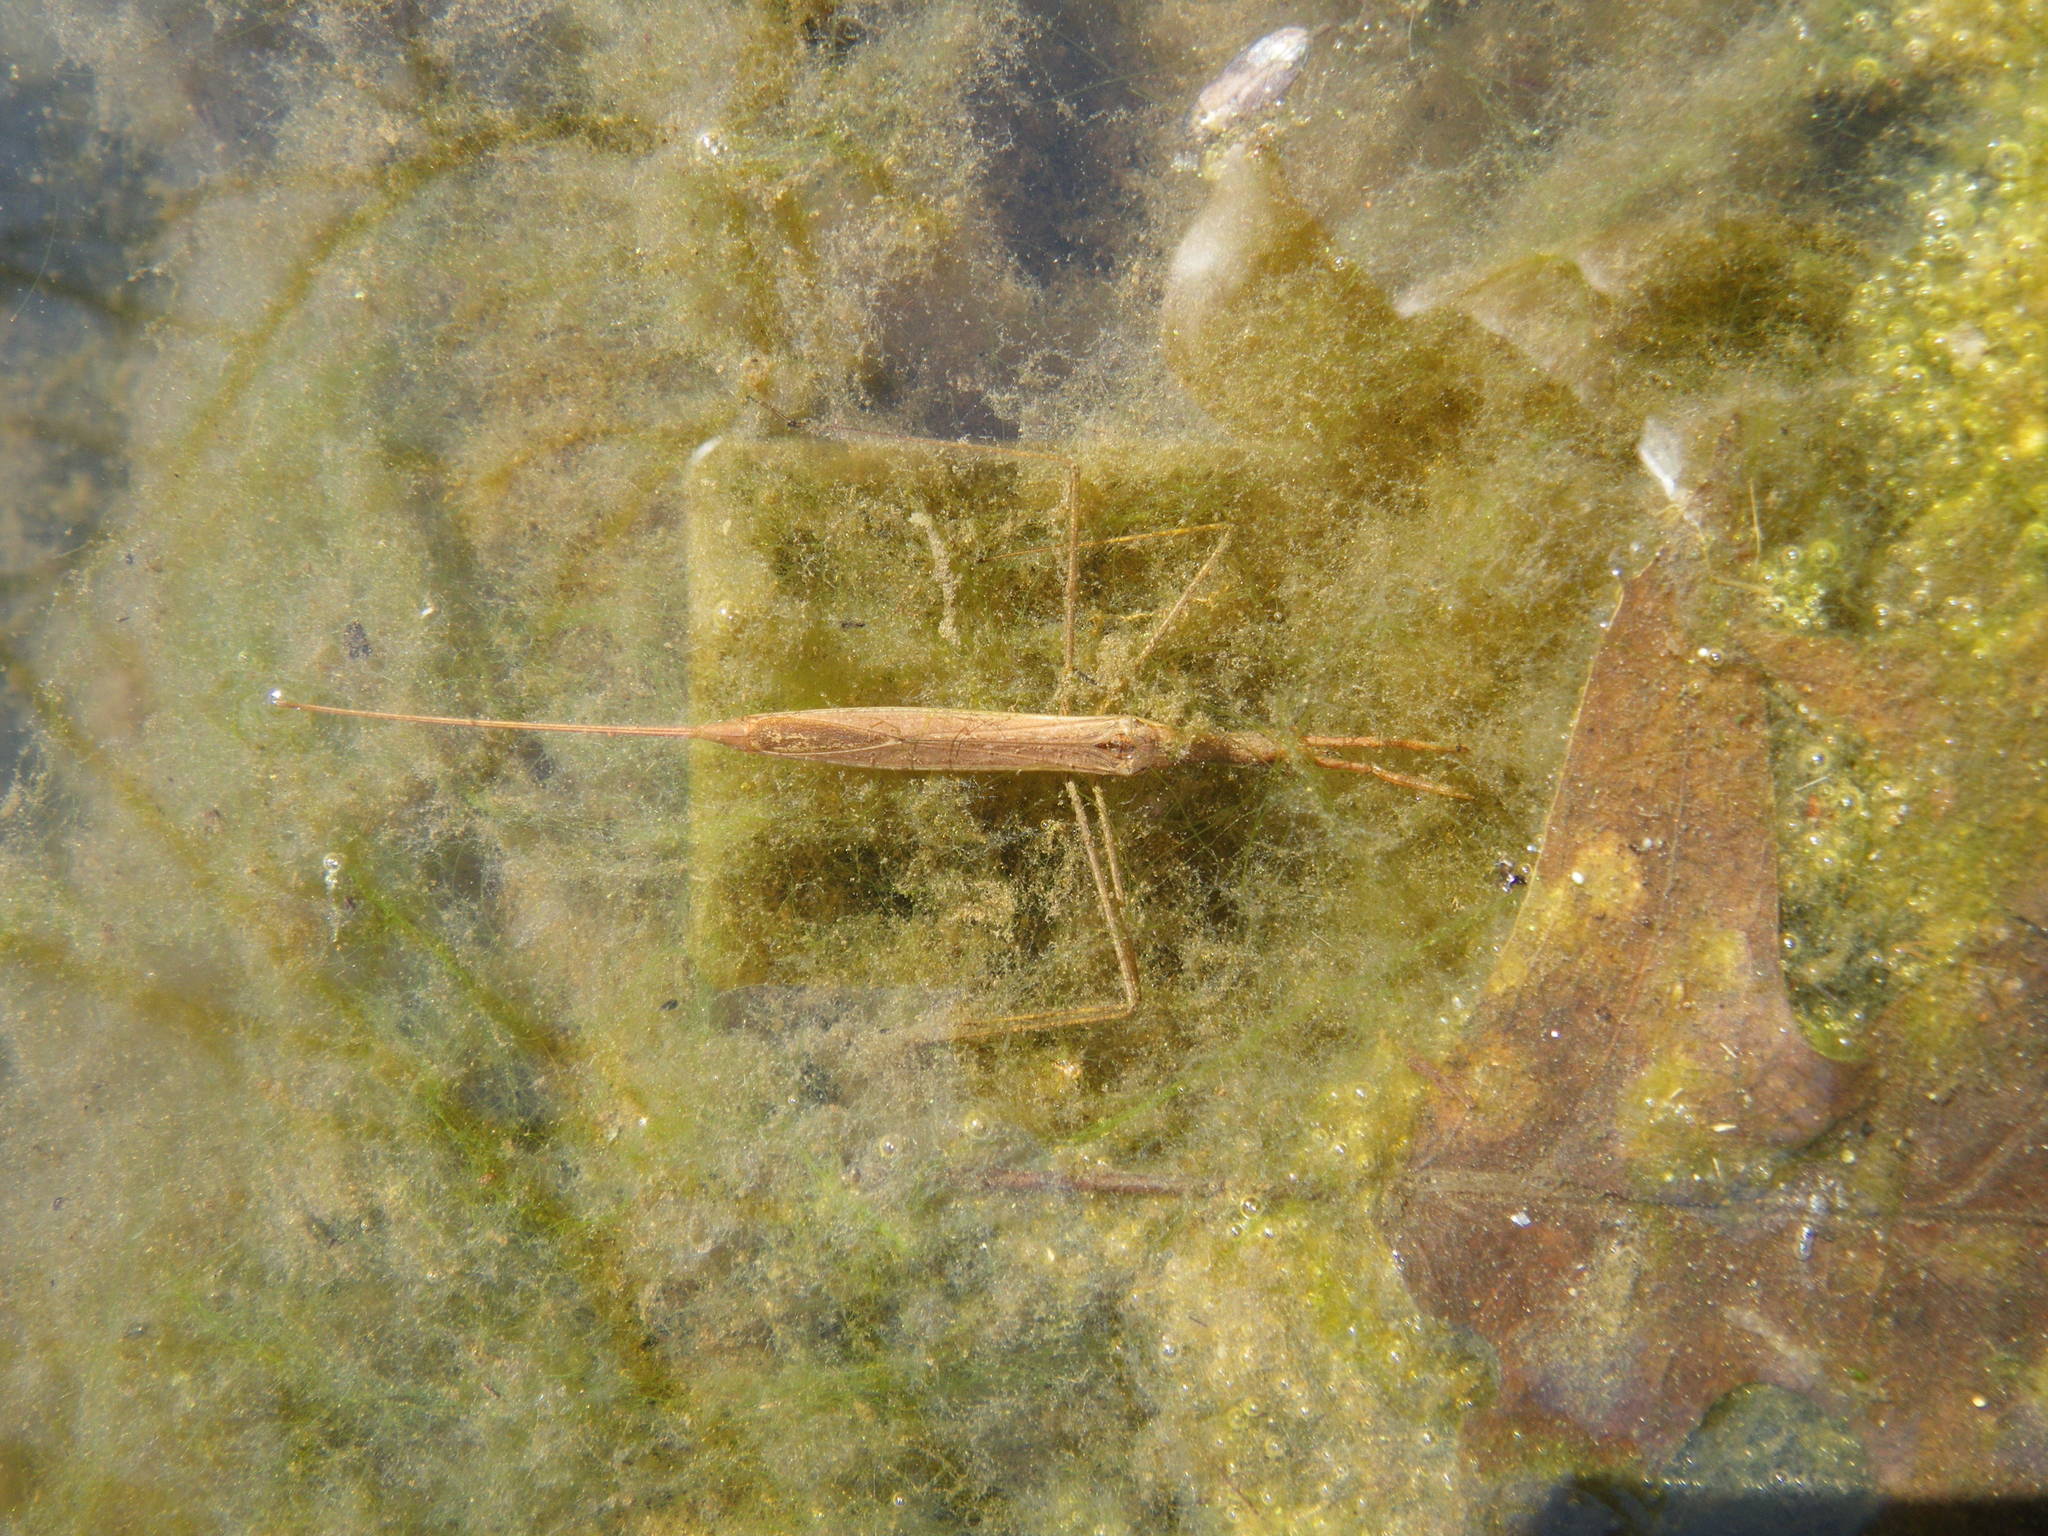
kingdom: Animalia
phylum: Arthropoda
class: Insecta
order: Hemiptera
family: Nepidae
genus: Ranatra
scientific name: Ranatra
